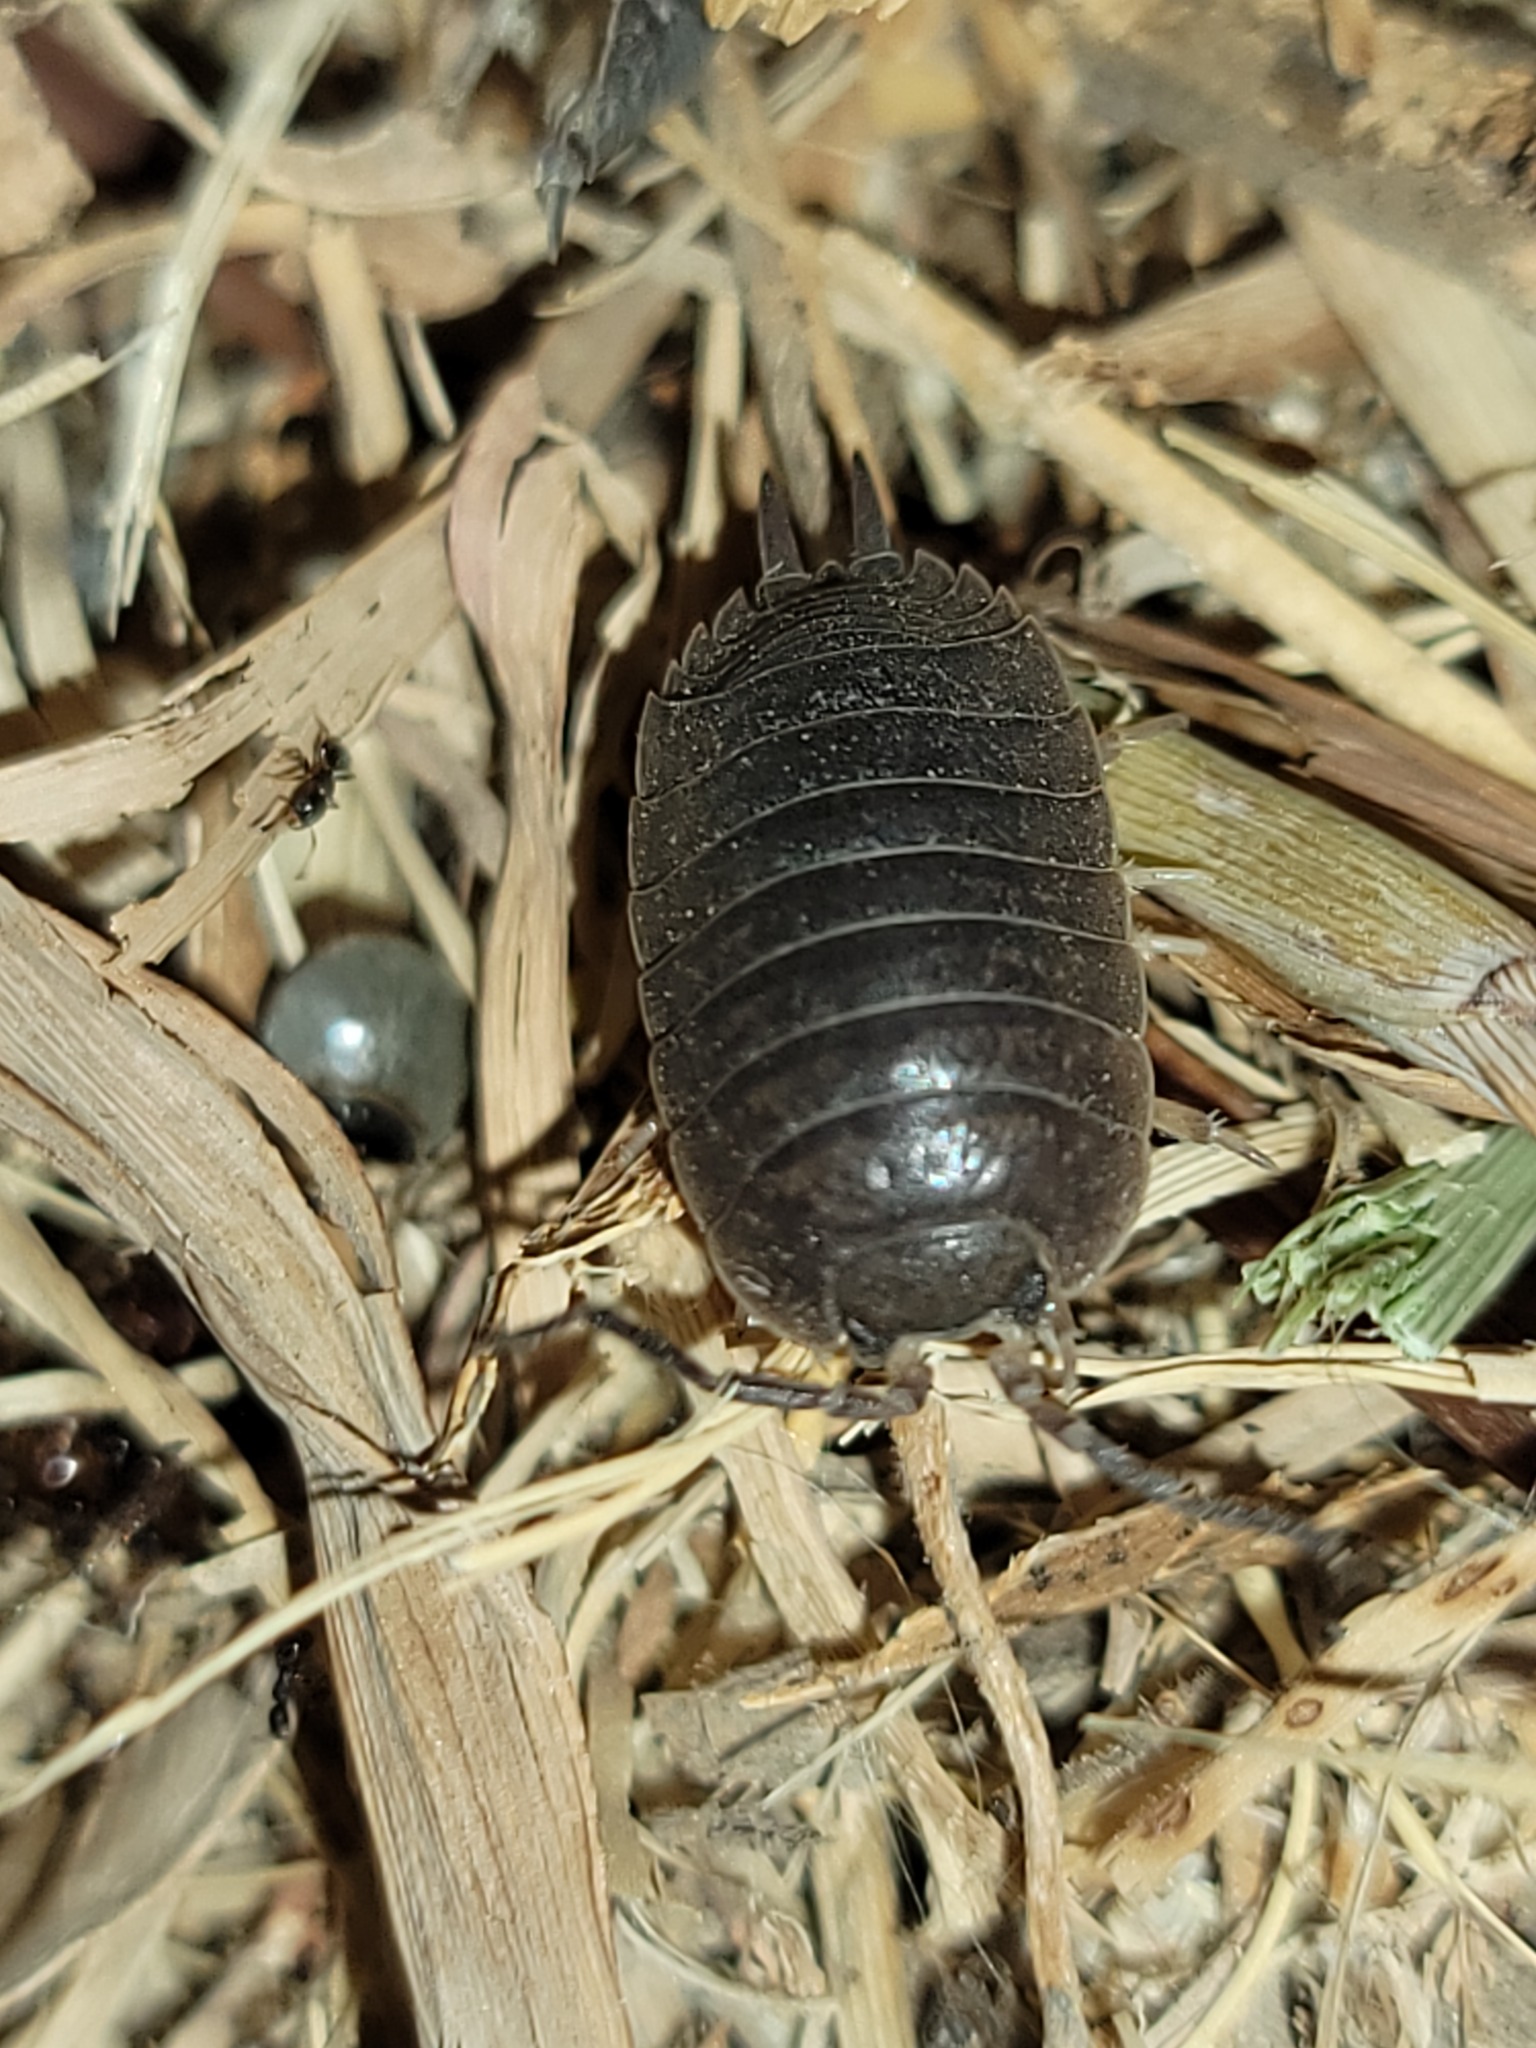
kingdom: Animalia
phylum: Arthropoda
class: Malacostraca
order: Isopoda
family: Porcellionidae
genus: Porcellio
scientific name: Porcellio laevis
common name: Swift woodlouse
